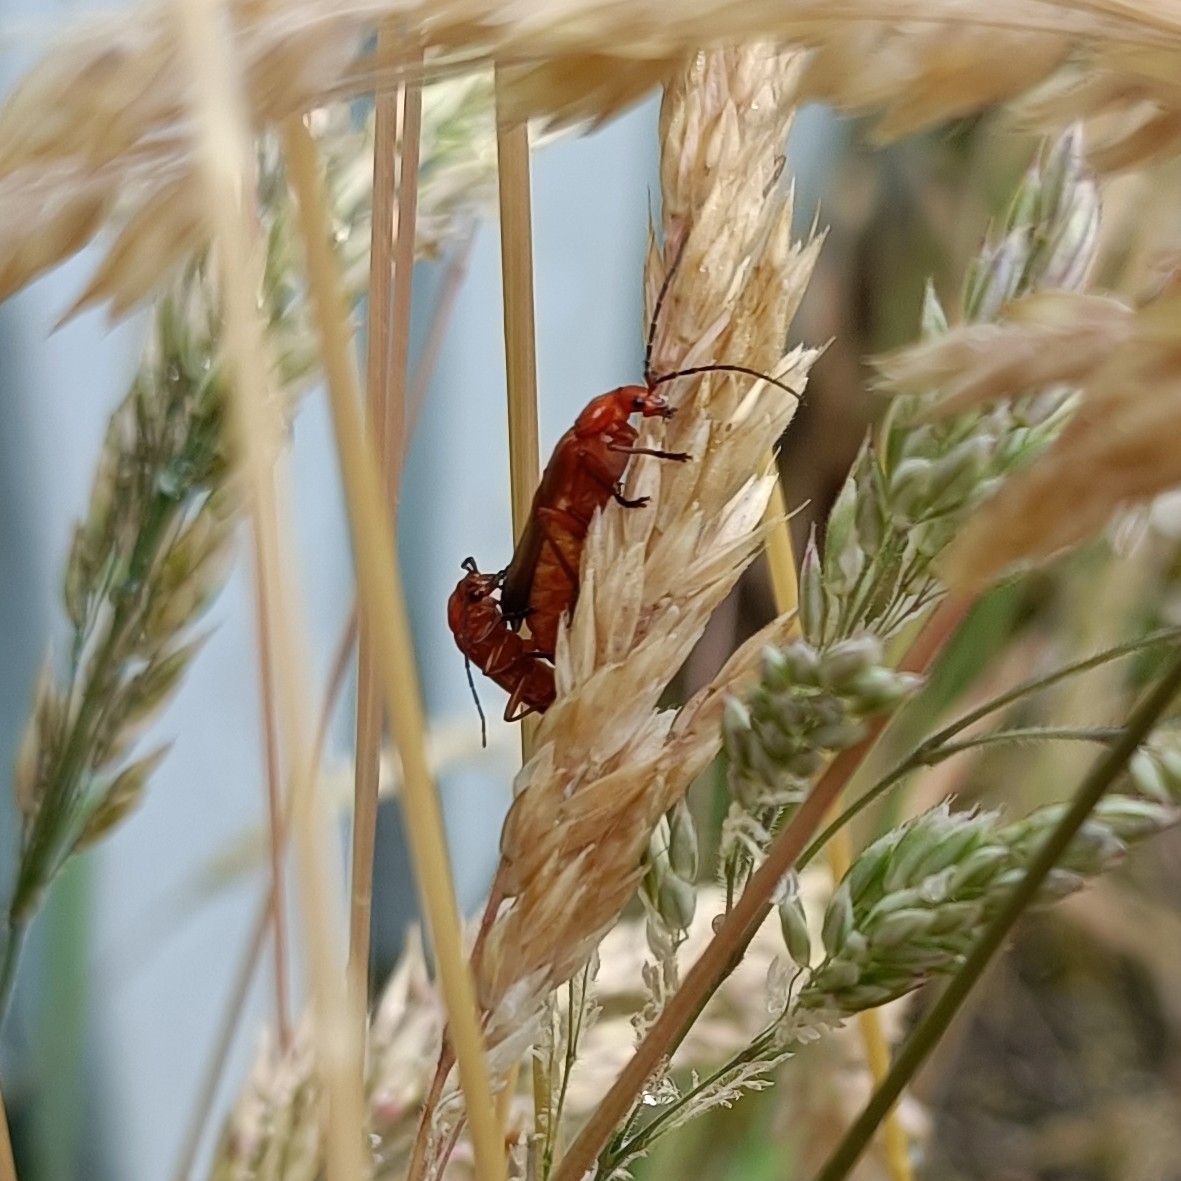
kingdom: Animalia
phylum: Arthropoda
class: Insecta
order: Coleoptera
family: Cantharidae
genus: Rhagonycha
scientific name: Rhagonycha fulva
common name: Common red soldier beetle
